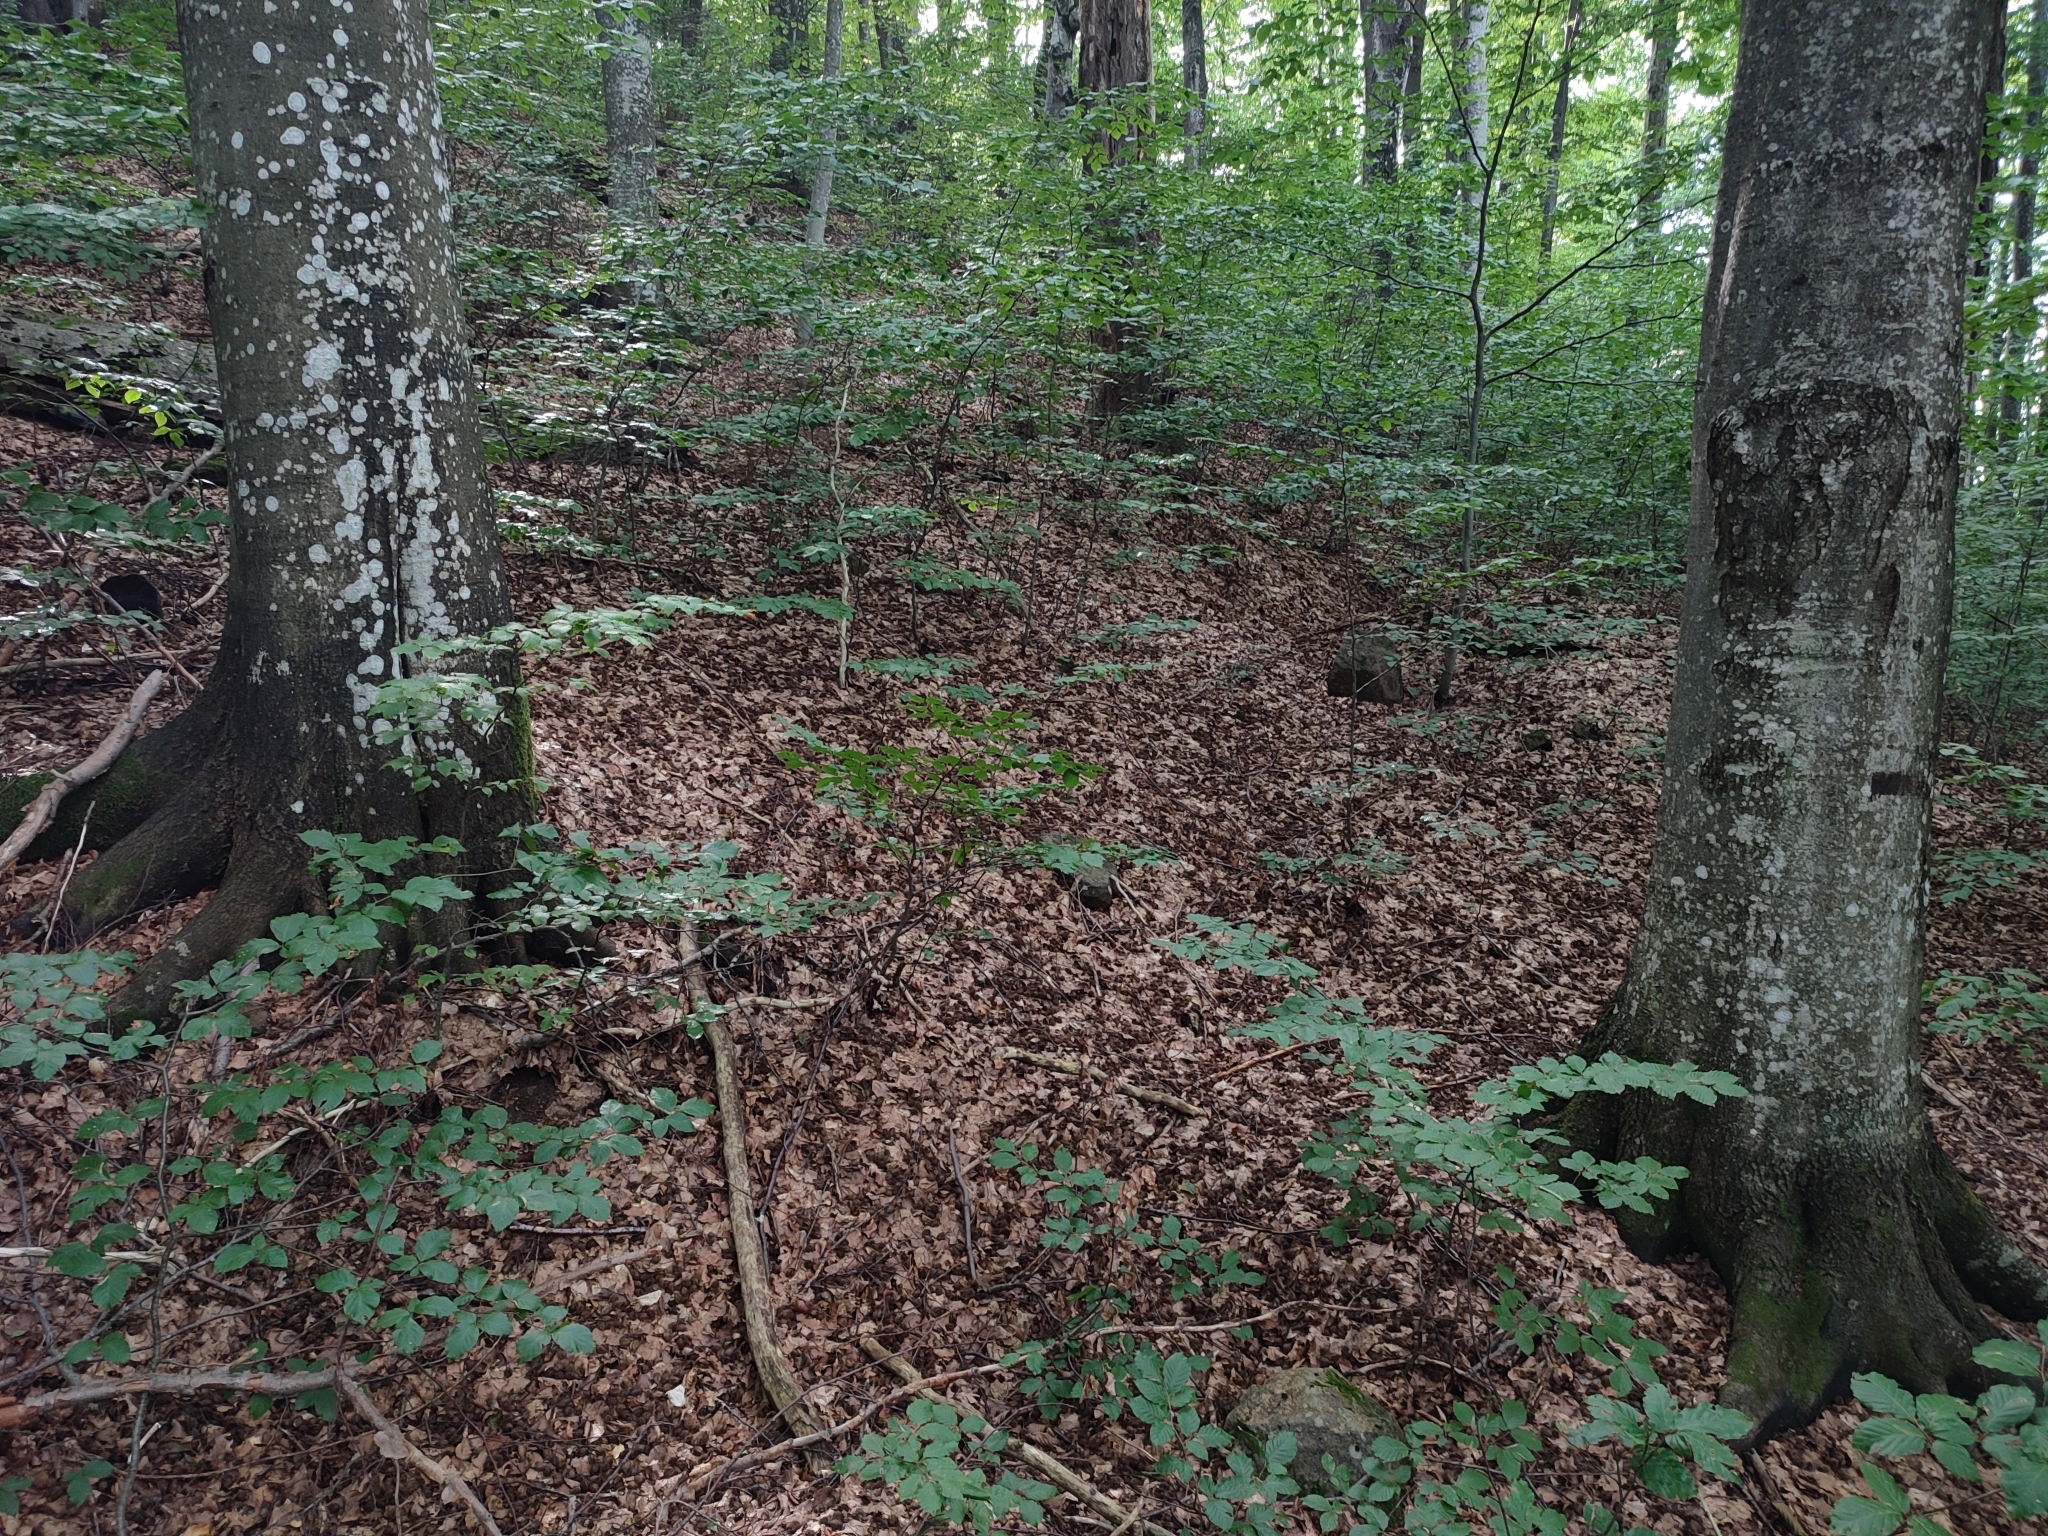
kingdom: Plantae
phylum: Tracheophyta
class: Magnoliopsida
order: Fagales
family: Fagaceae
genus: Fagus
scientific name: Fagus sylvatica
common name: Beech
